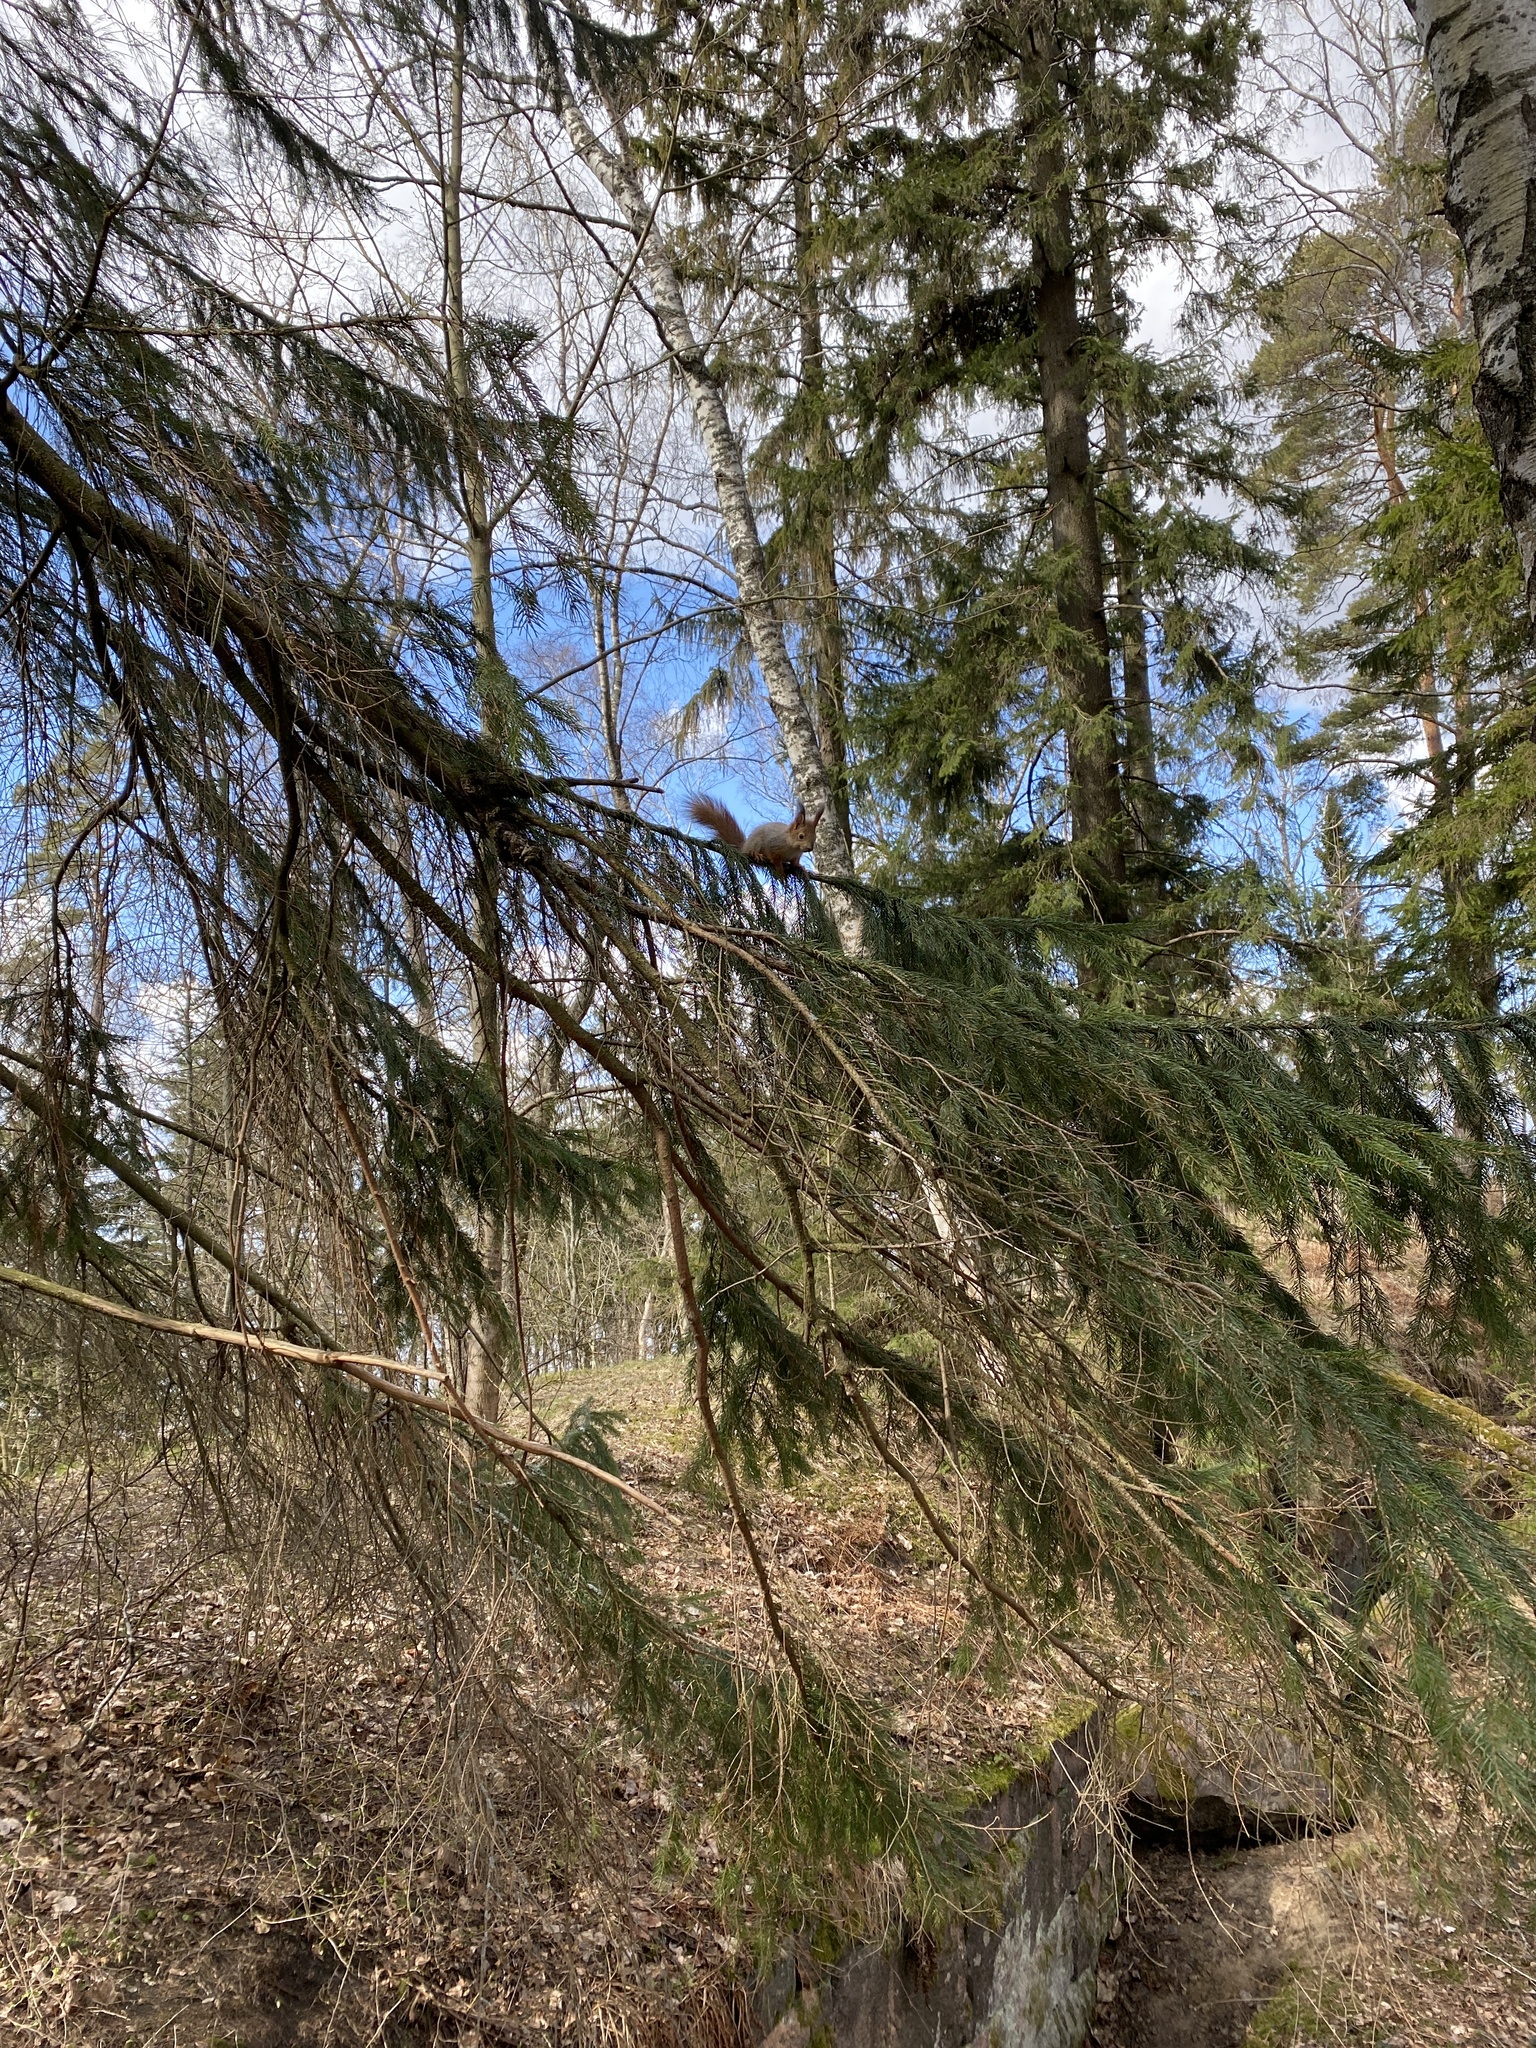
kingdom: Animalia
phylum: Chordata
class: Mammalia
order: Rodentia
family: Sciuridae
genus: Sciurus
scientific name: Sciurus vulgaris
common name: Eurasian red squirrel
